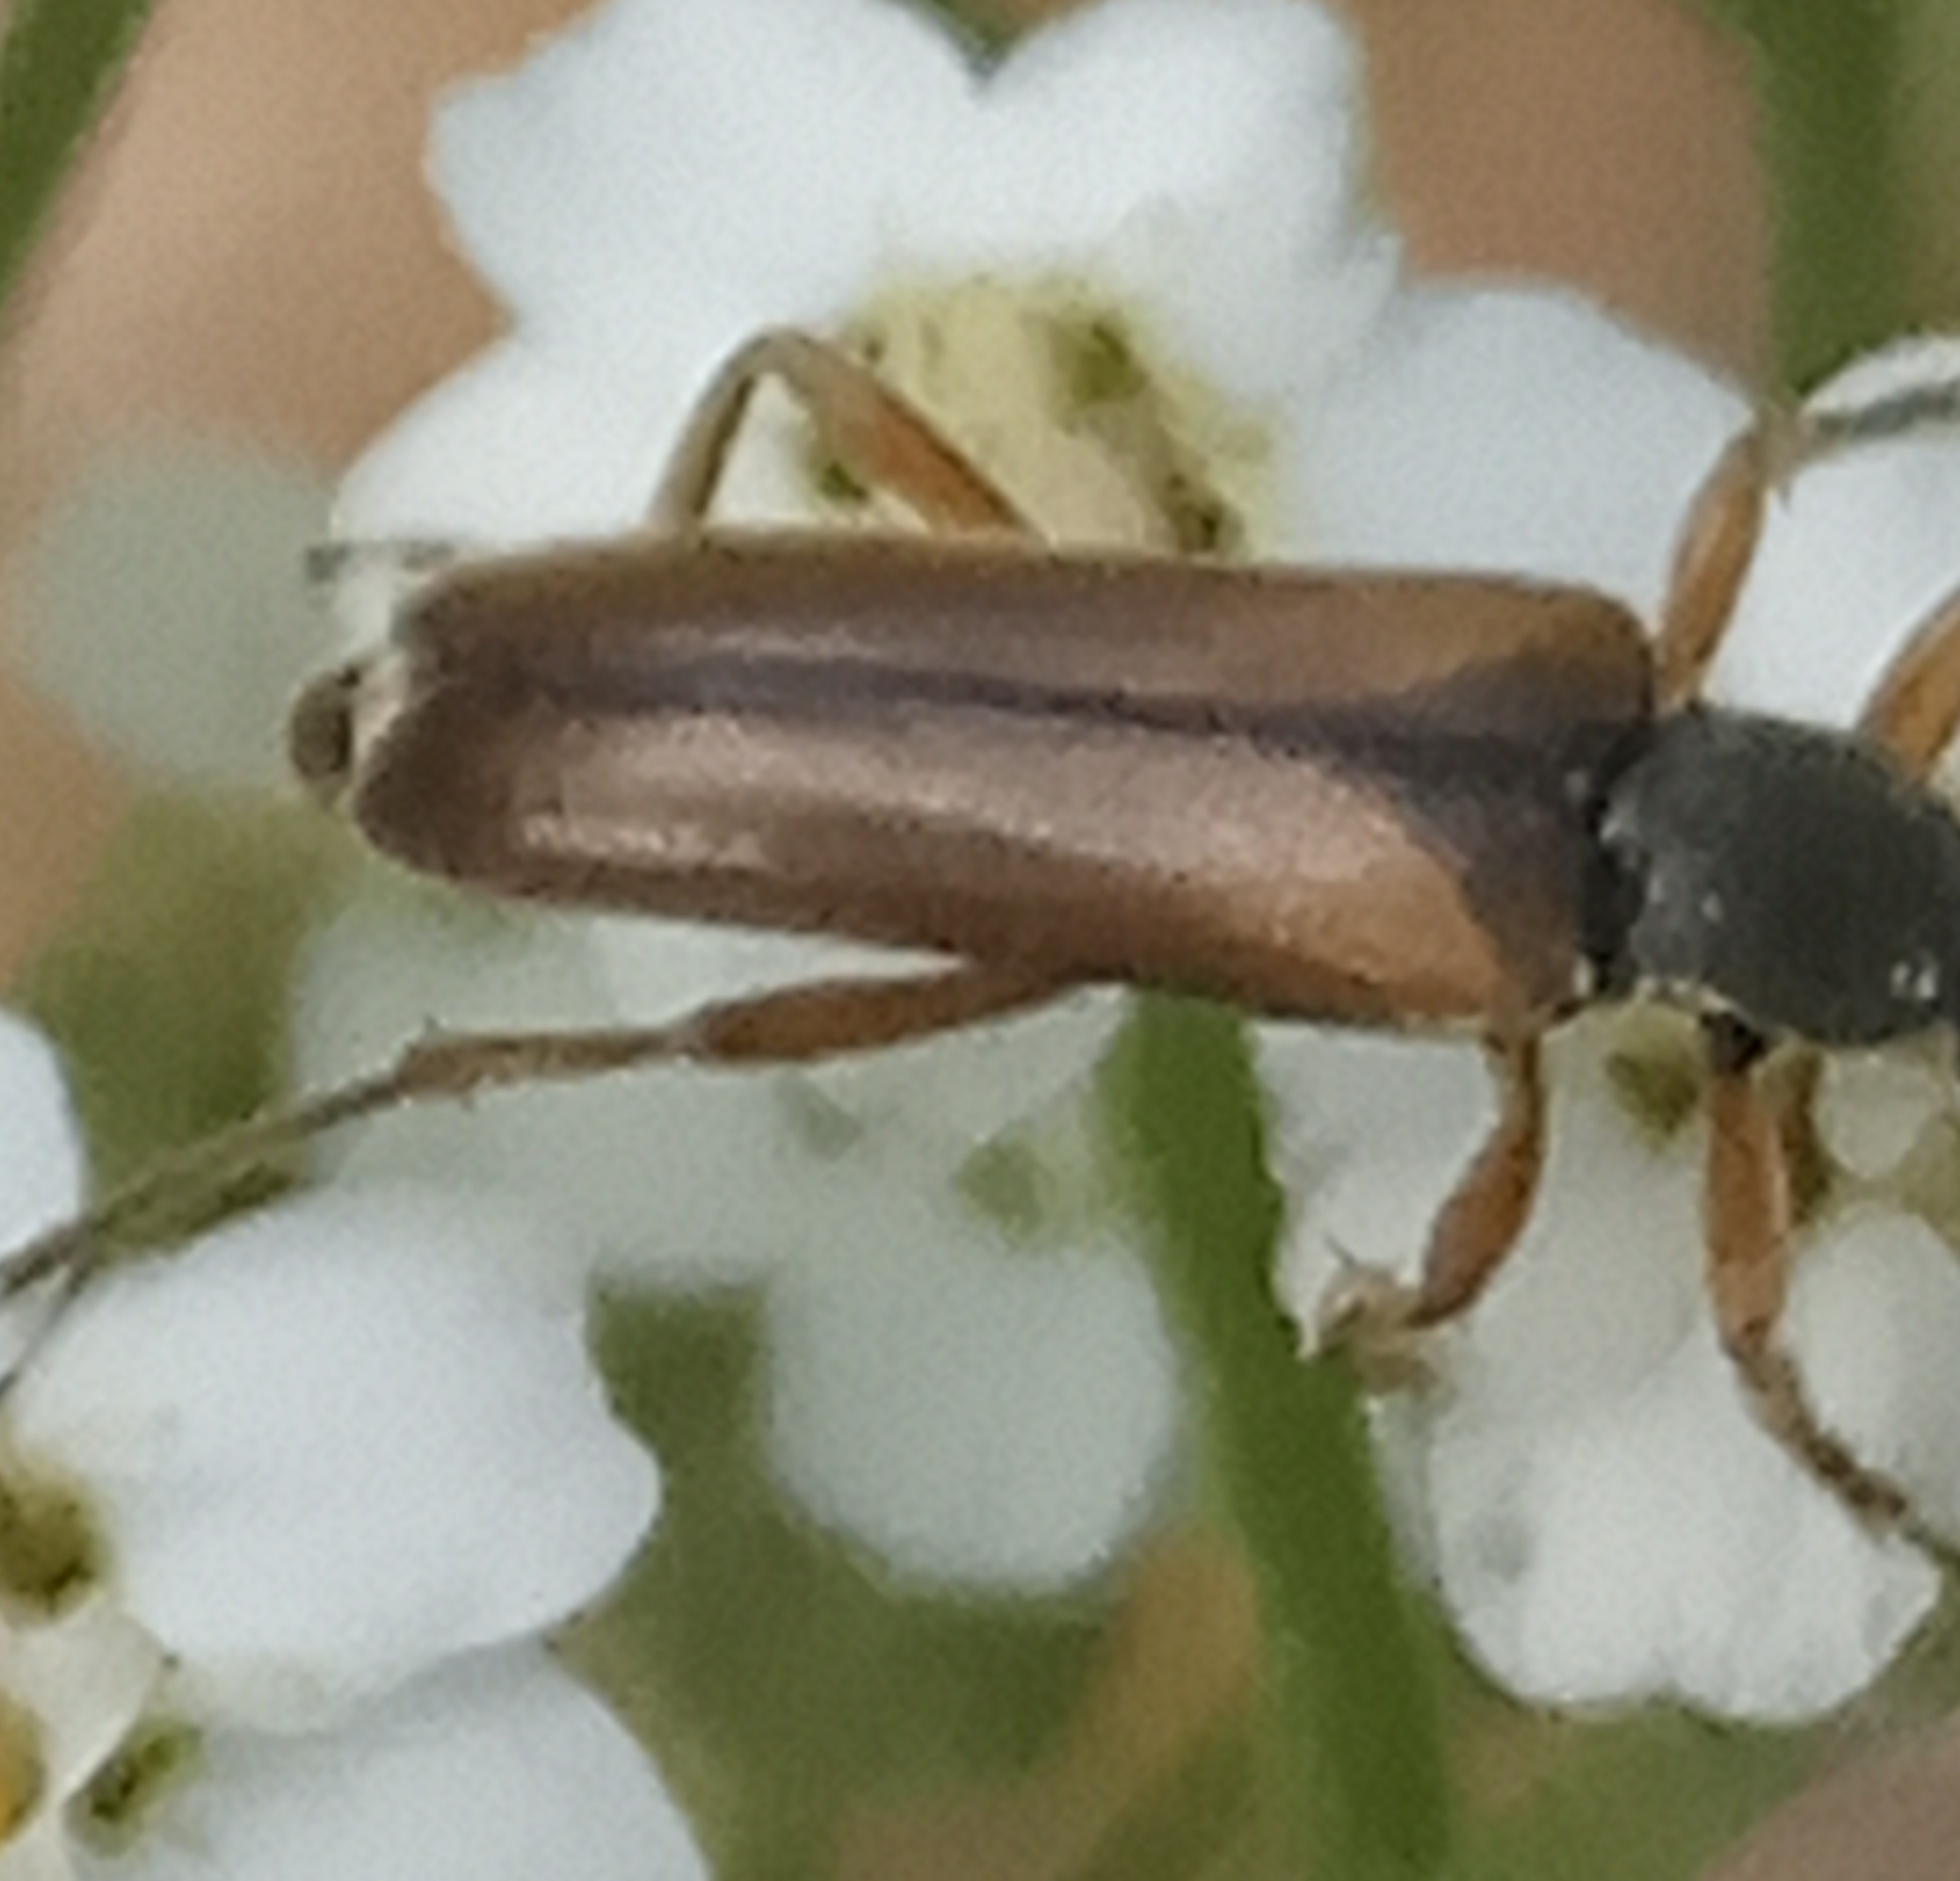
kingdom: Animalia
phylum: Arthropoda
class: Insecta
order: Coleoptera
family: Cerambycidae
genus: Alosterna
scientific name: Alosterna tabacicolor
